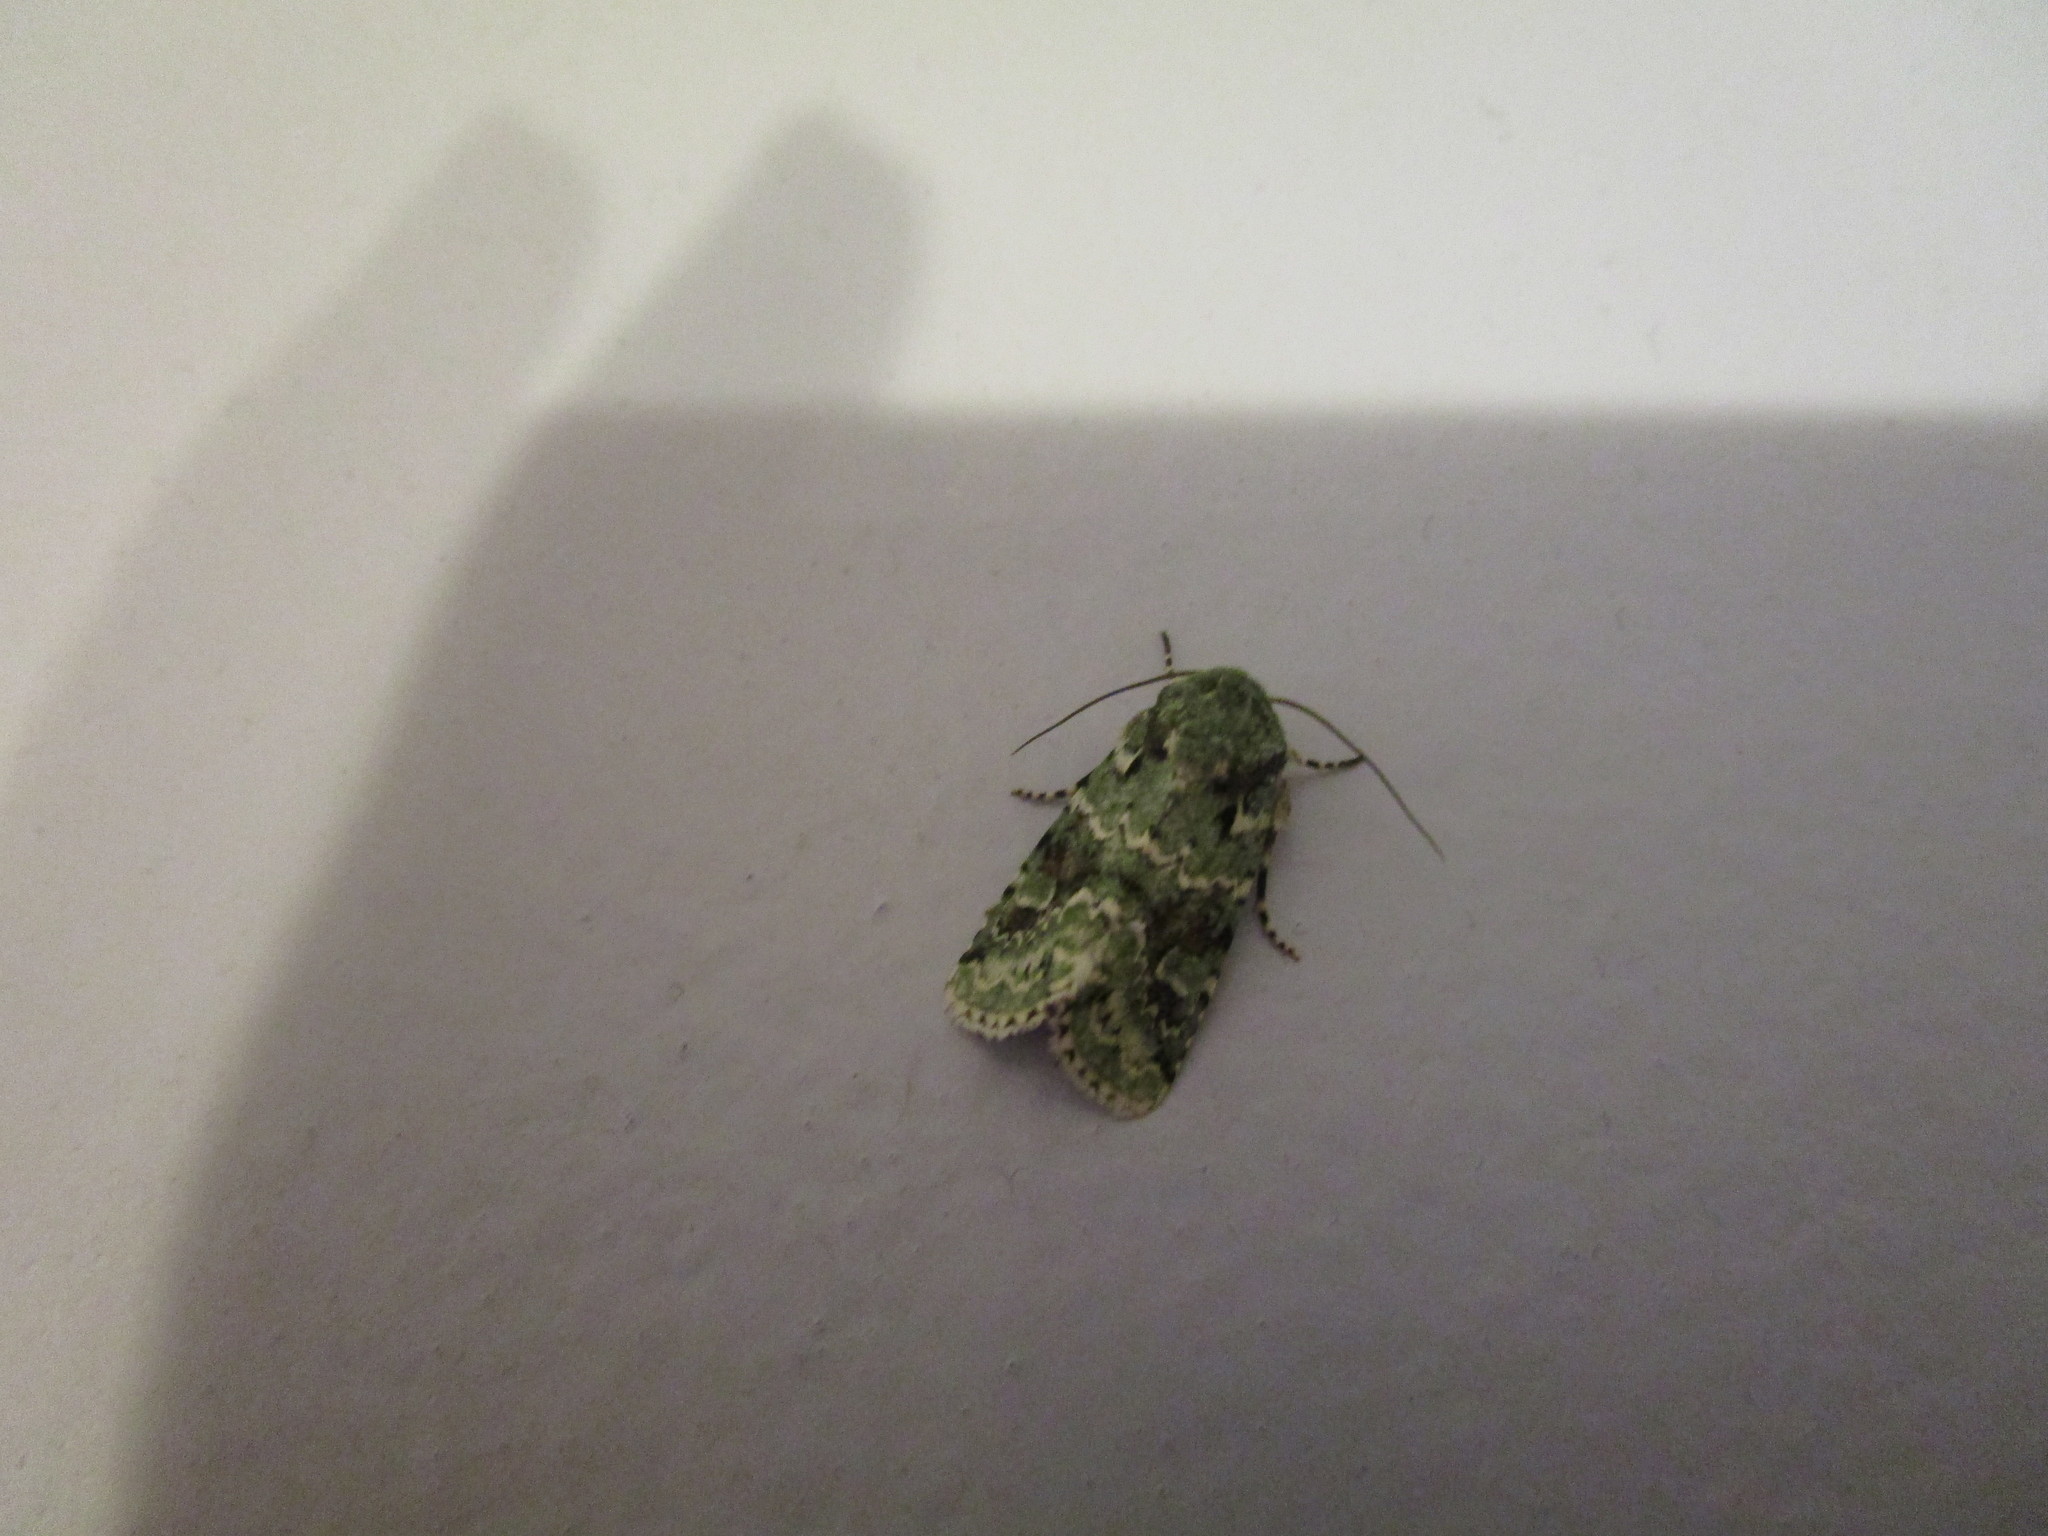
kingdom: Animalia
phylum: Arthropoda
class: Insecta
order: Lepidoptera
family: Noctuidae
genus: Lacinipolia
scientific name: Lacinipolia implicata
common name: Implicit arches
